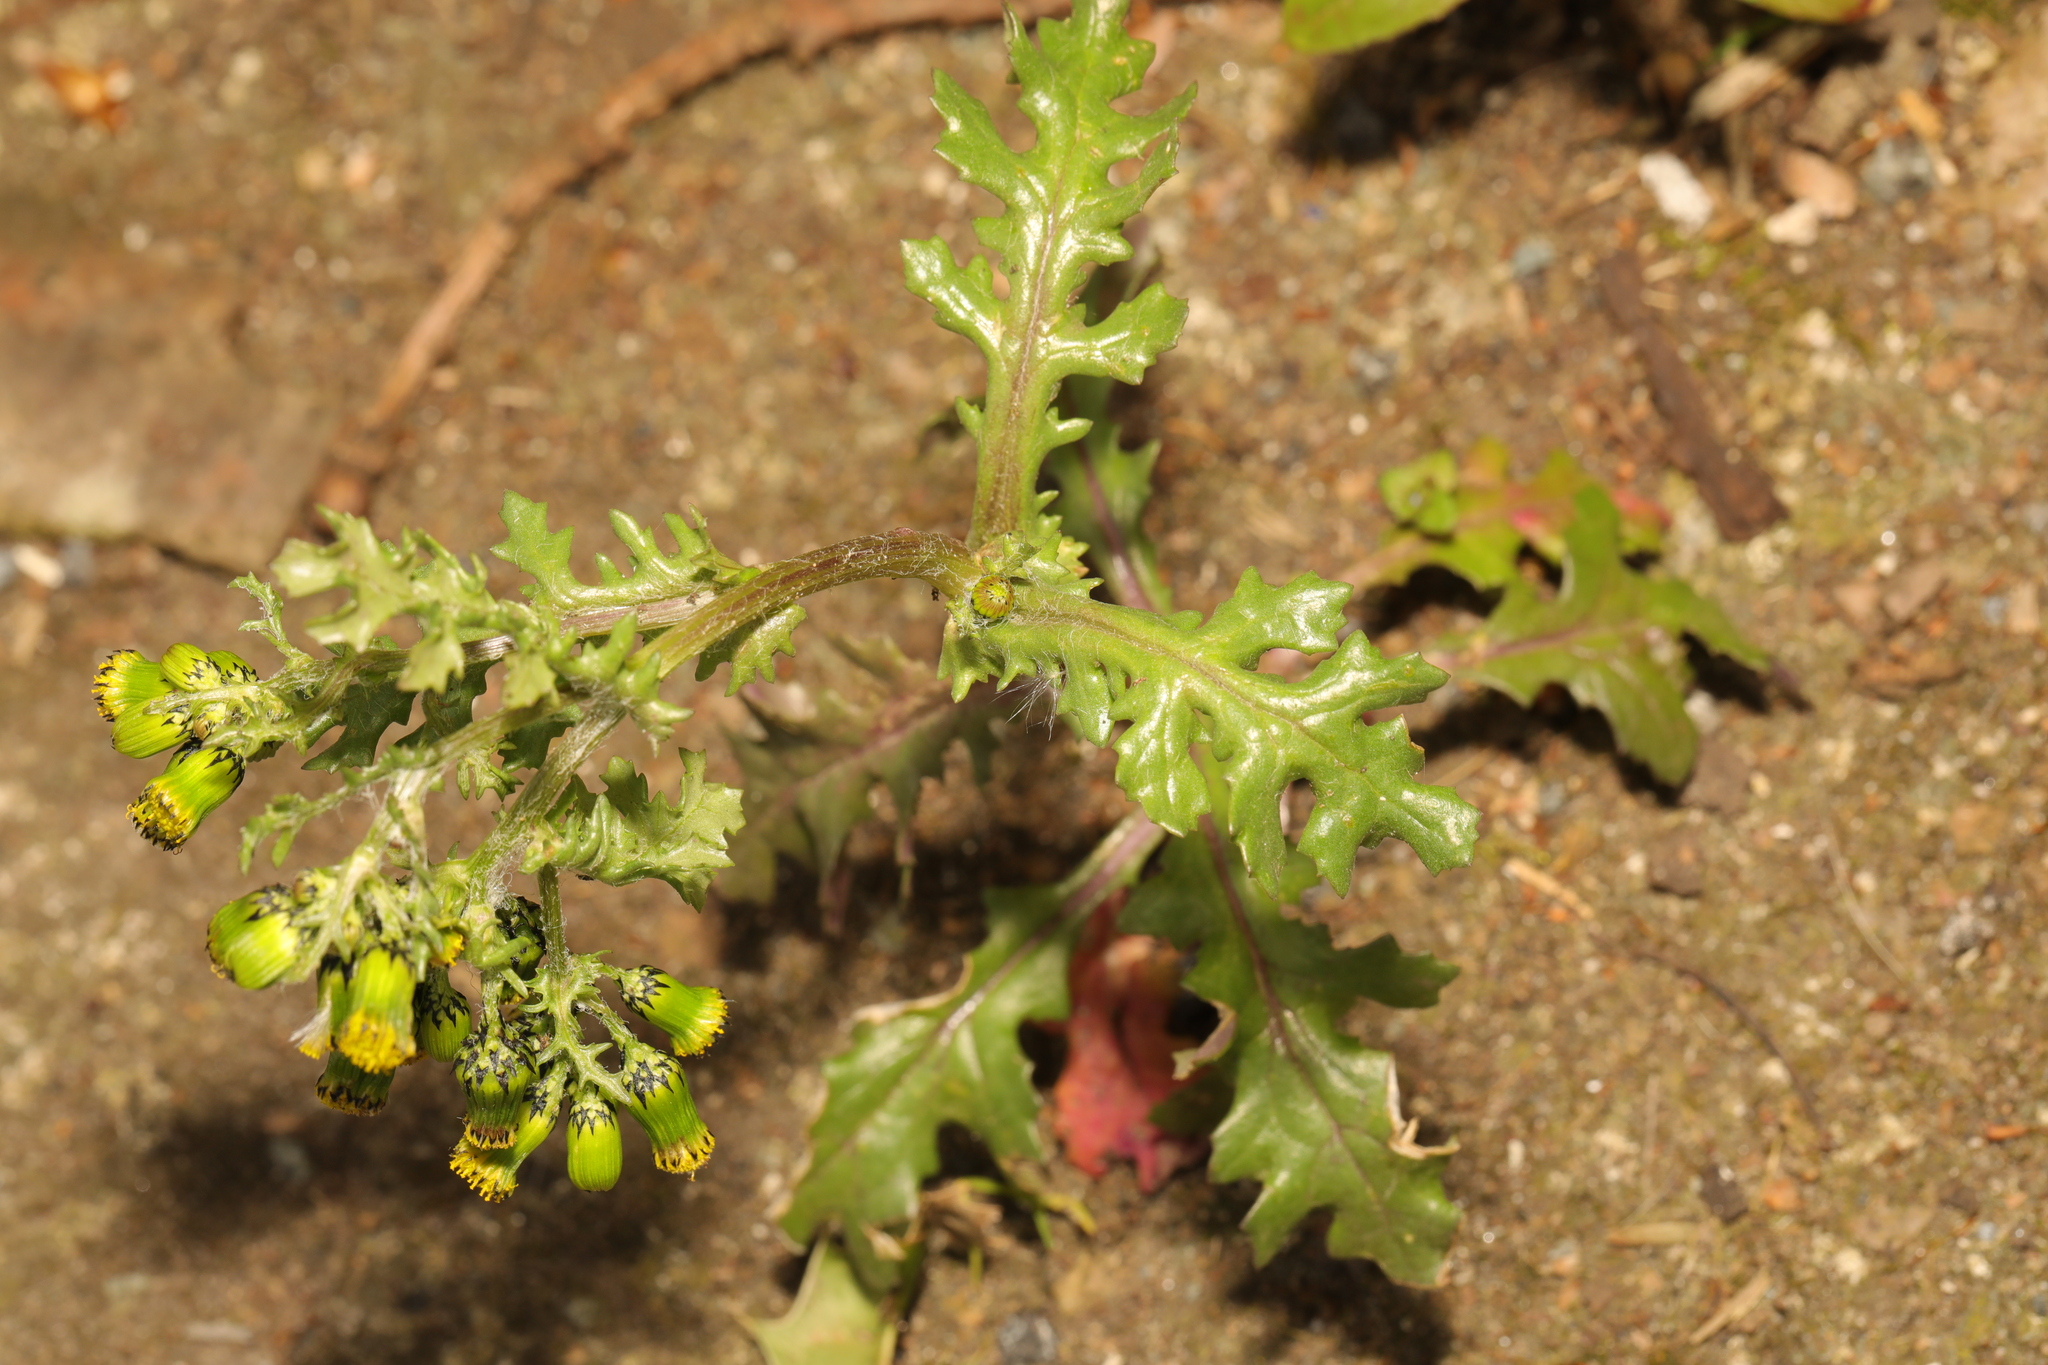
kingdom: Plantae
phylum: Tracheophyta
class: Magnoliopsida
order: Asterales
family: Asteraceae
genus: Senecio
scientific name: Senecio vulgaris
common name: Old-man-in-the-spring
